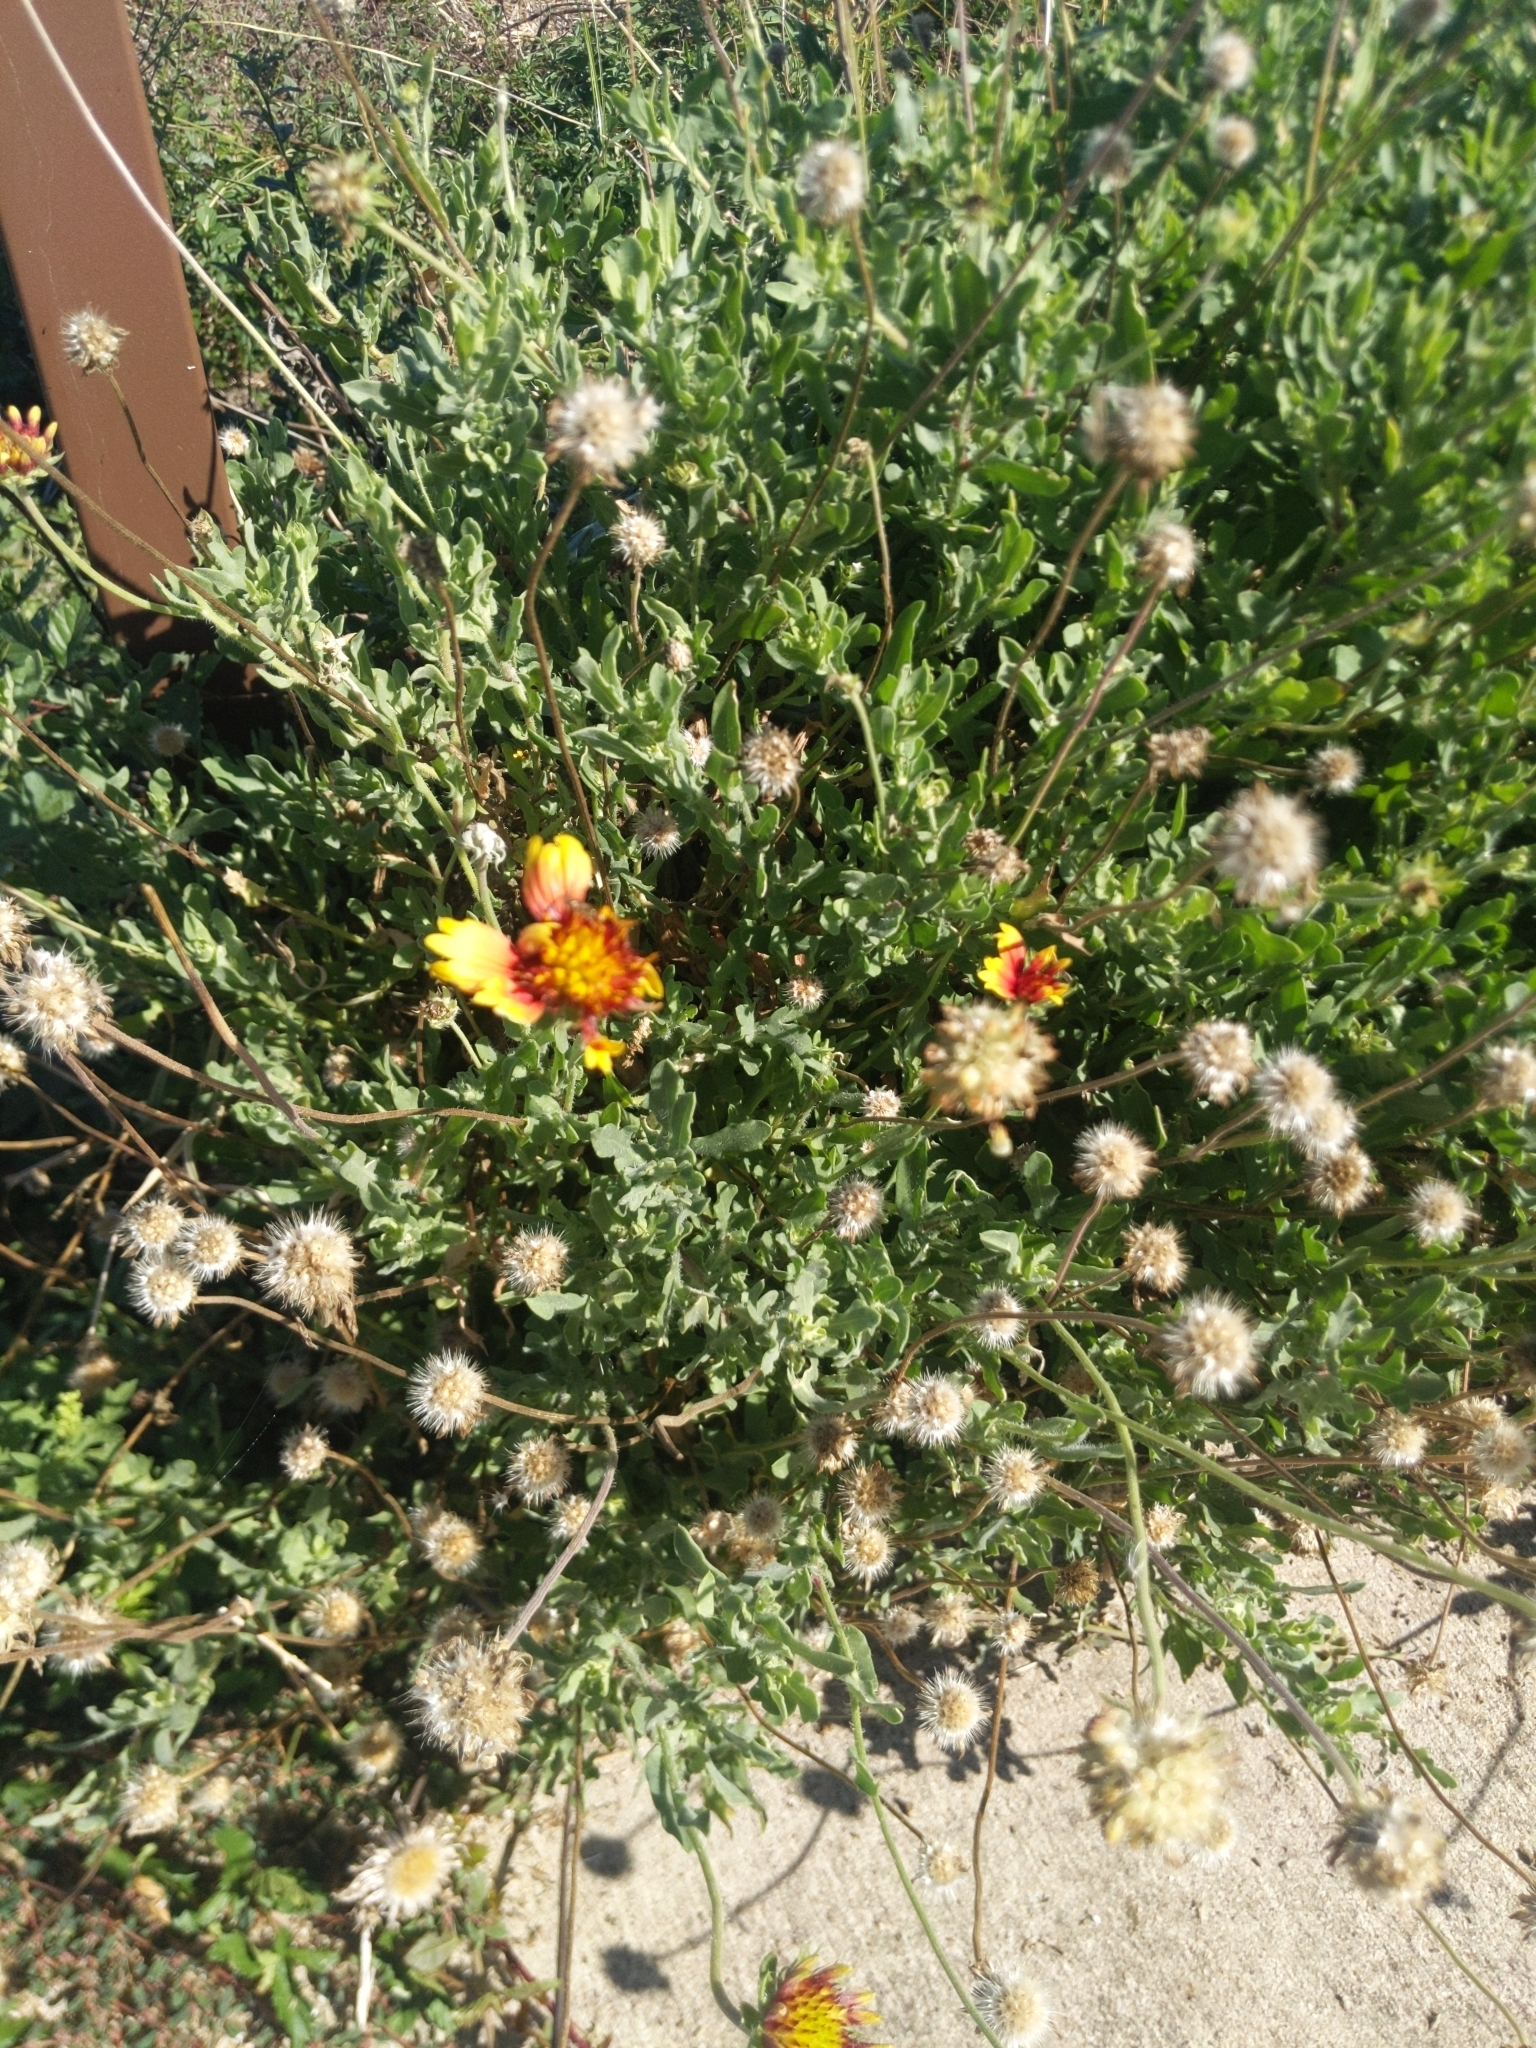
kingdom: Plantae
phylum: Tracheophyta
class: Magnoliopsida
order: Asterales
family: Asteraceae
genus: Gaillardia
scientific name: Gaillardia pulchella
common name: Firewheel
